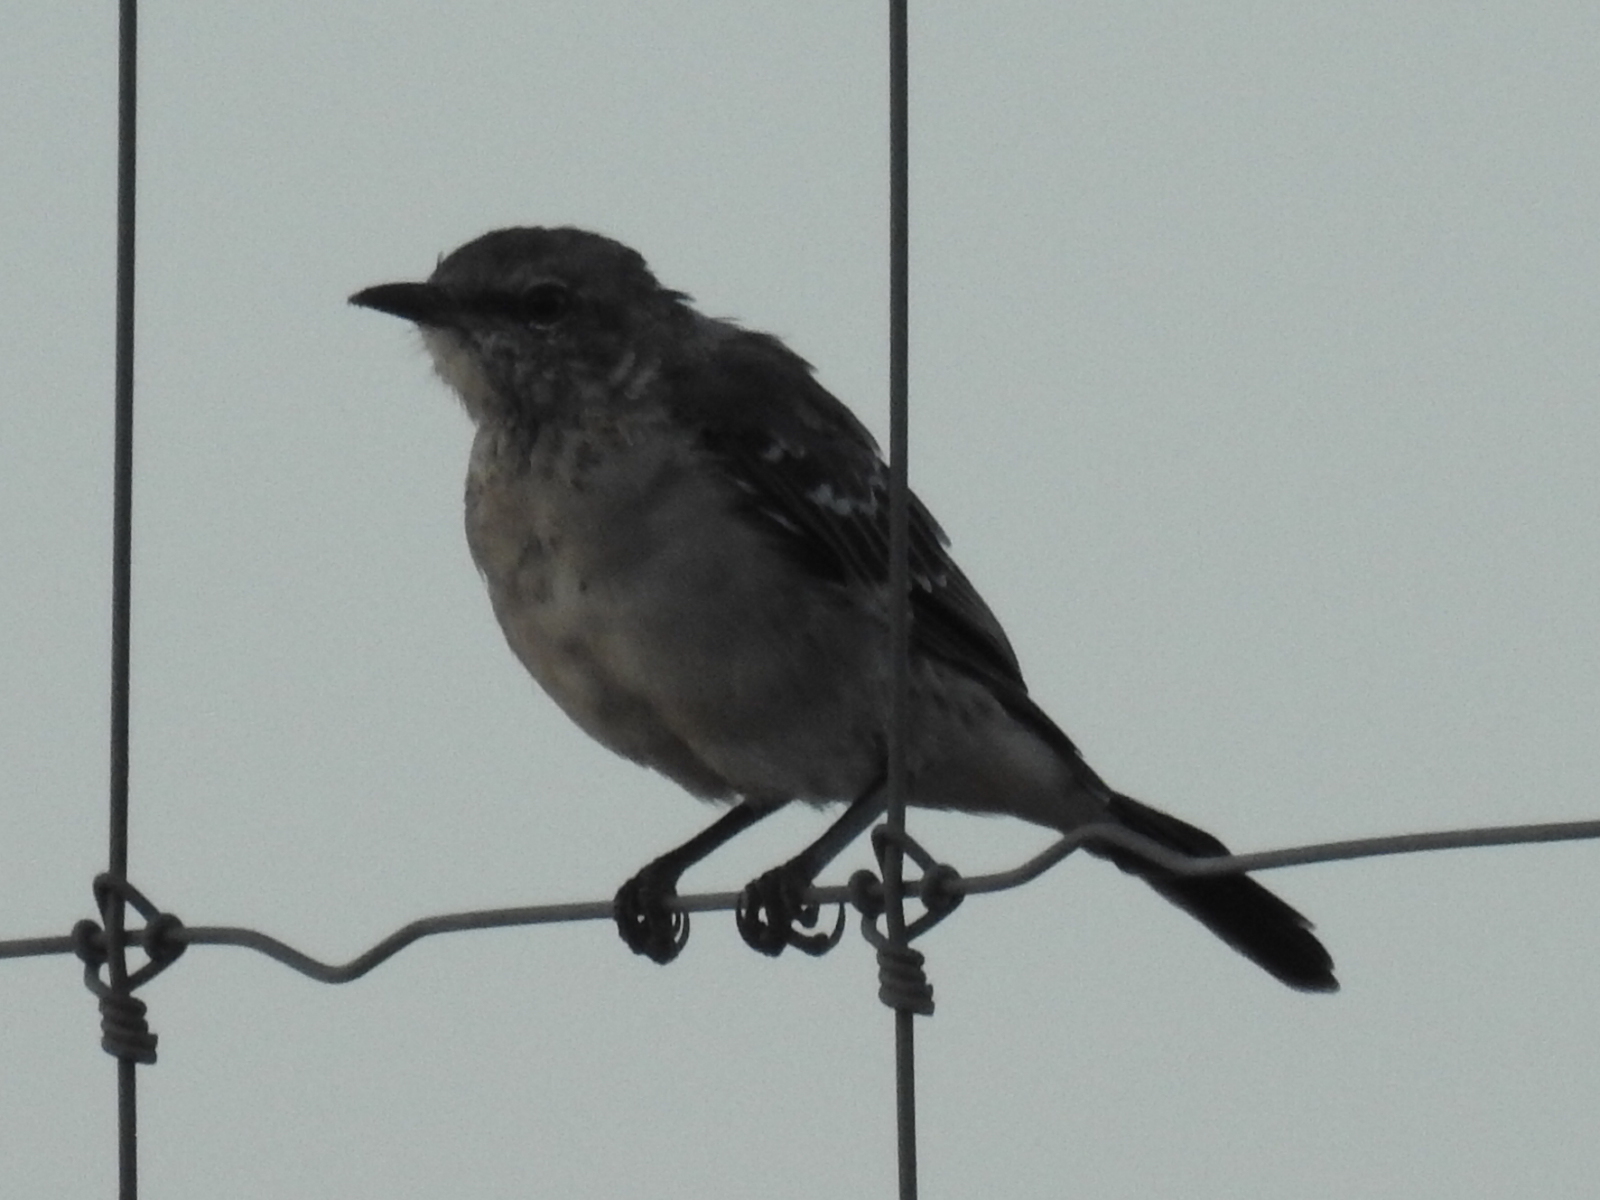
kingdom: Animalia
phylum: Chordata
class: Aves
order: Passeriformes
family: Mimidae
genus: Mimus
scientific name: Mimus polyglottos
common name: Northern mockingbird
